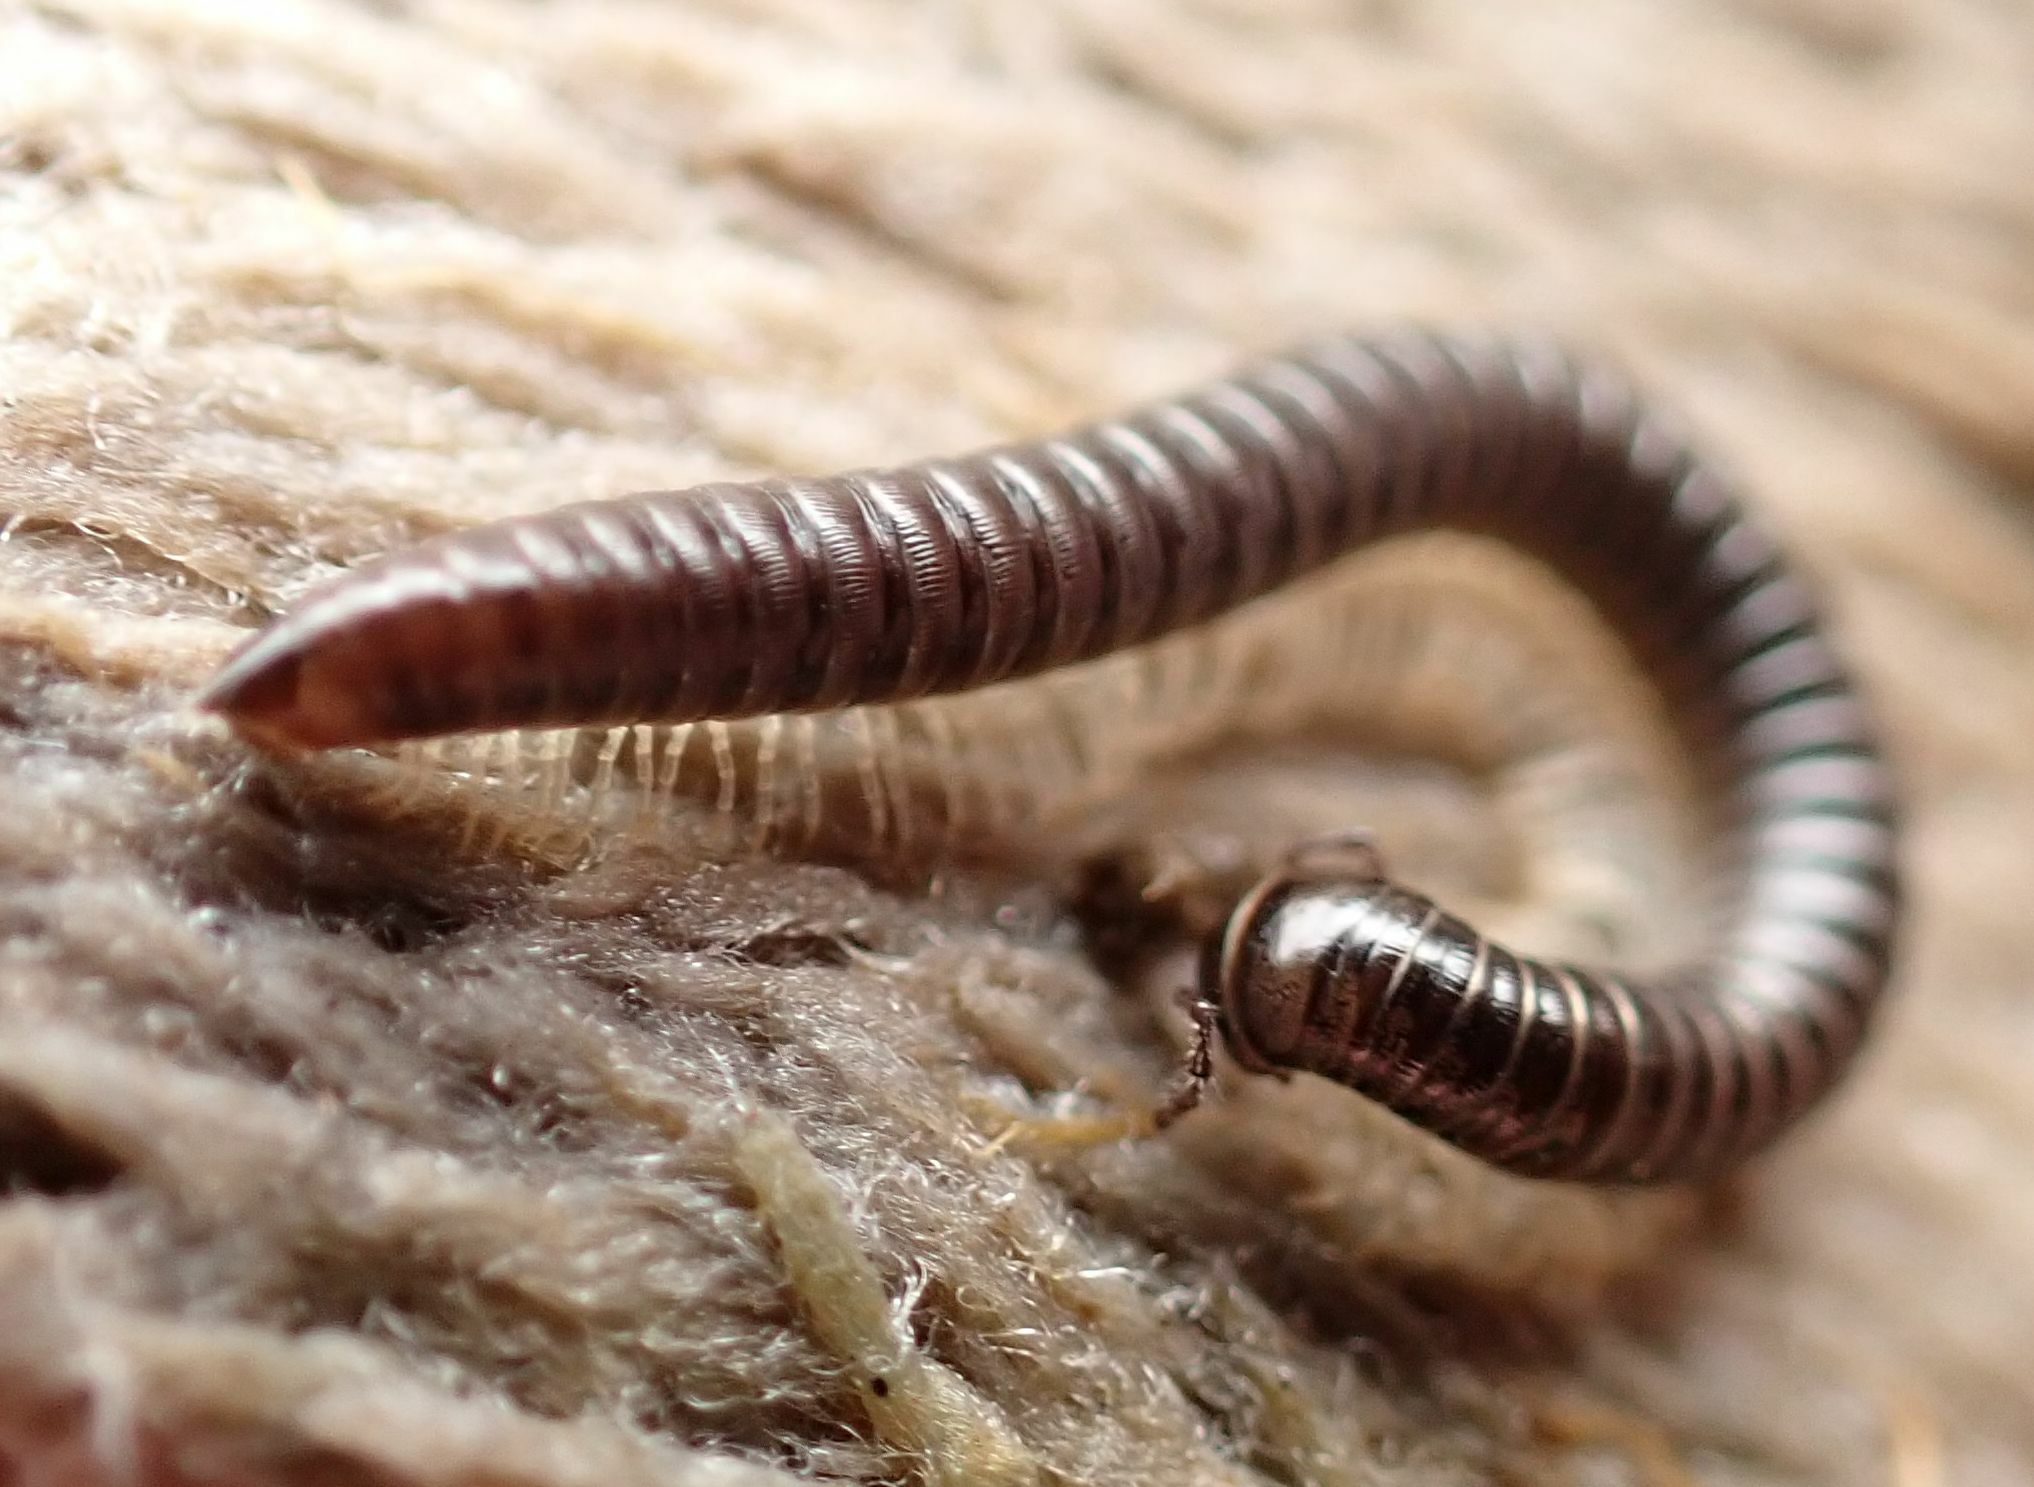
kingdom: Animalia
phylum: Arthropoda
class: Diplopoda
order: Julida
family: Julidae
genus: Tachypodoiulus
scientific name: Tachypodoiulus niger
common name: White-legged snake millipede
